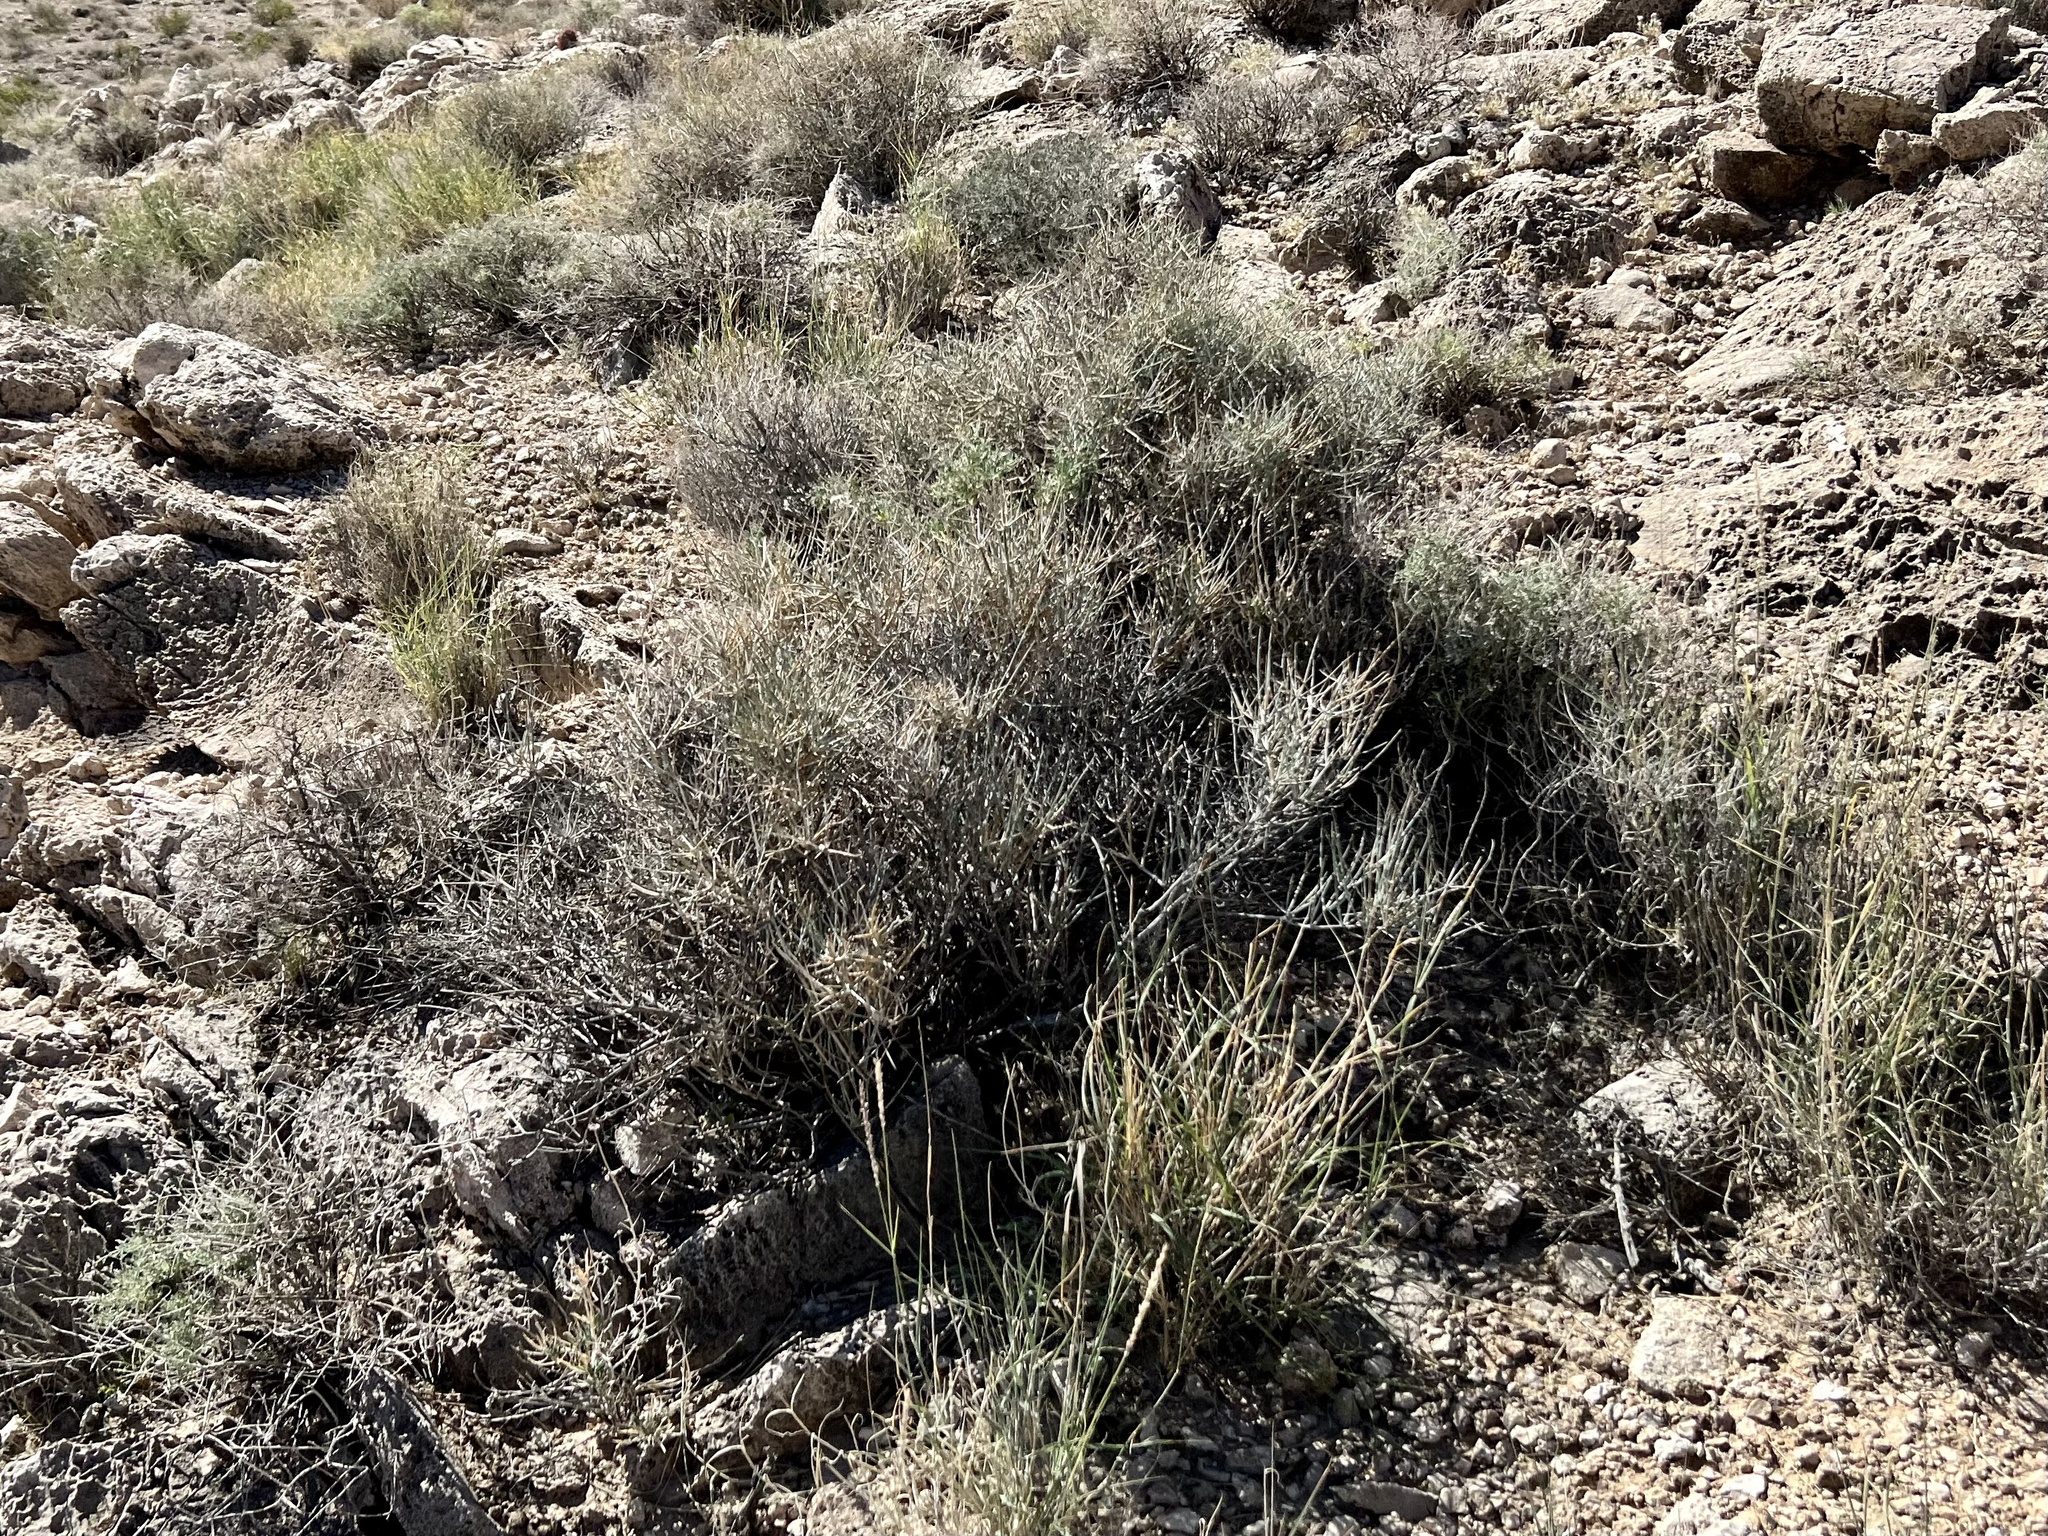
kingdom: Plantae
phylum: Tracheophyta
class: Gnetopsida
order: Ephedrales
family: Ephedraceae
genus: Ephedra
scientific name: Ephedra nevadensis
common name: Gray ephedra
